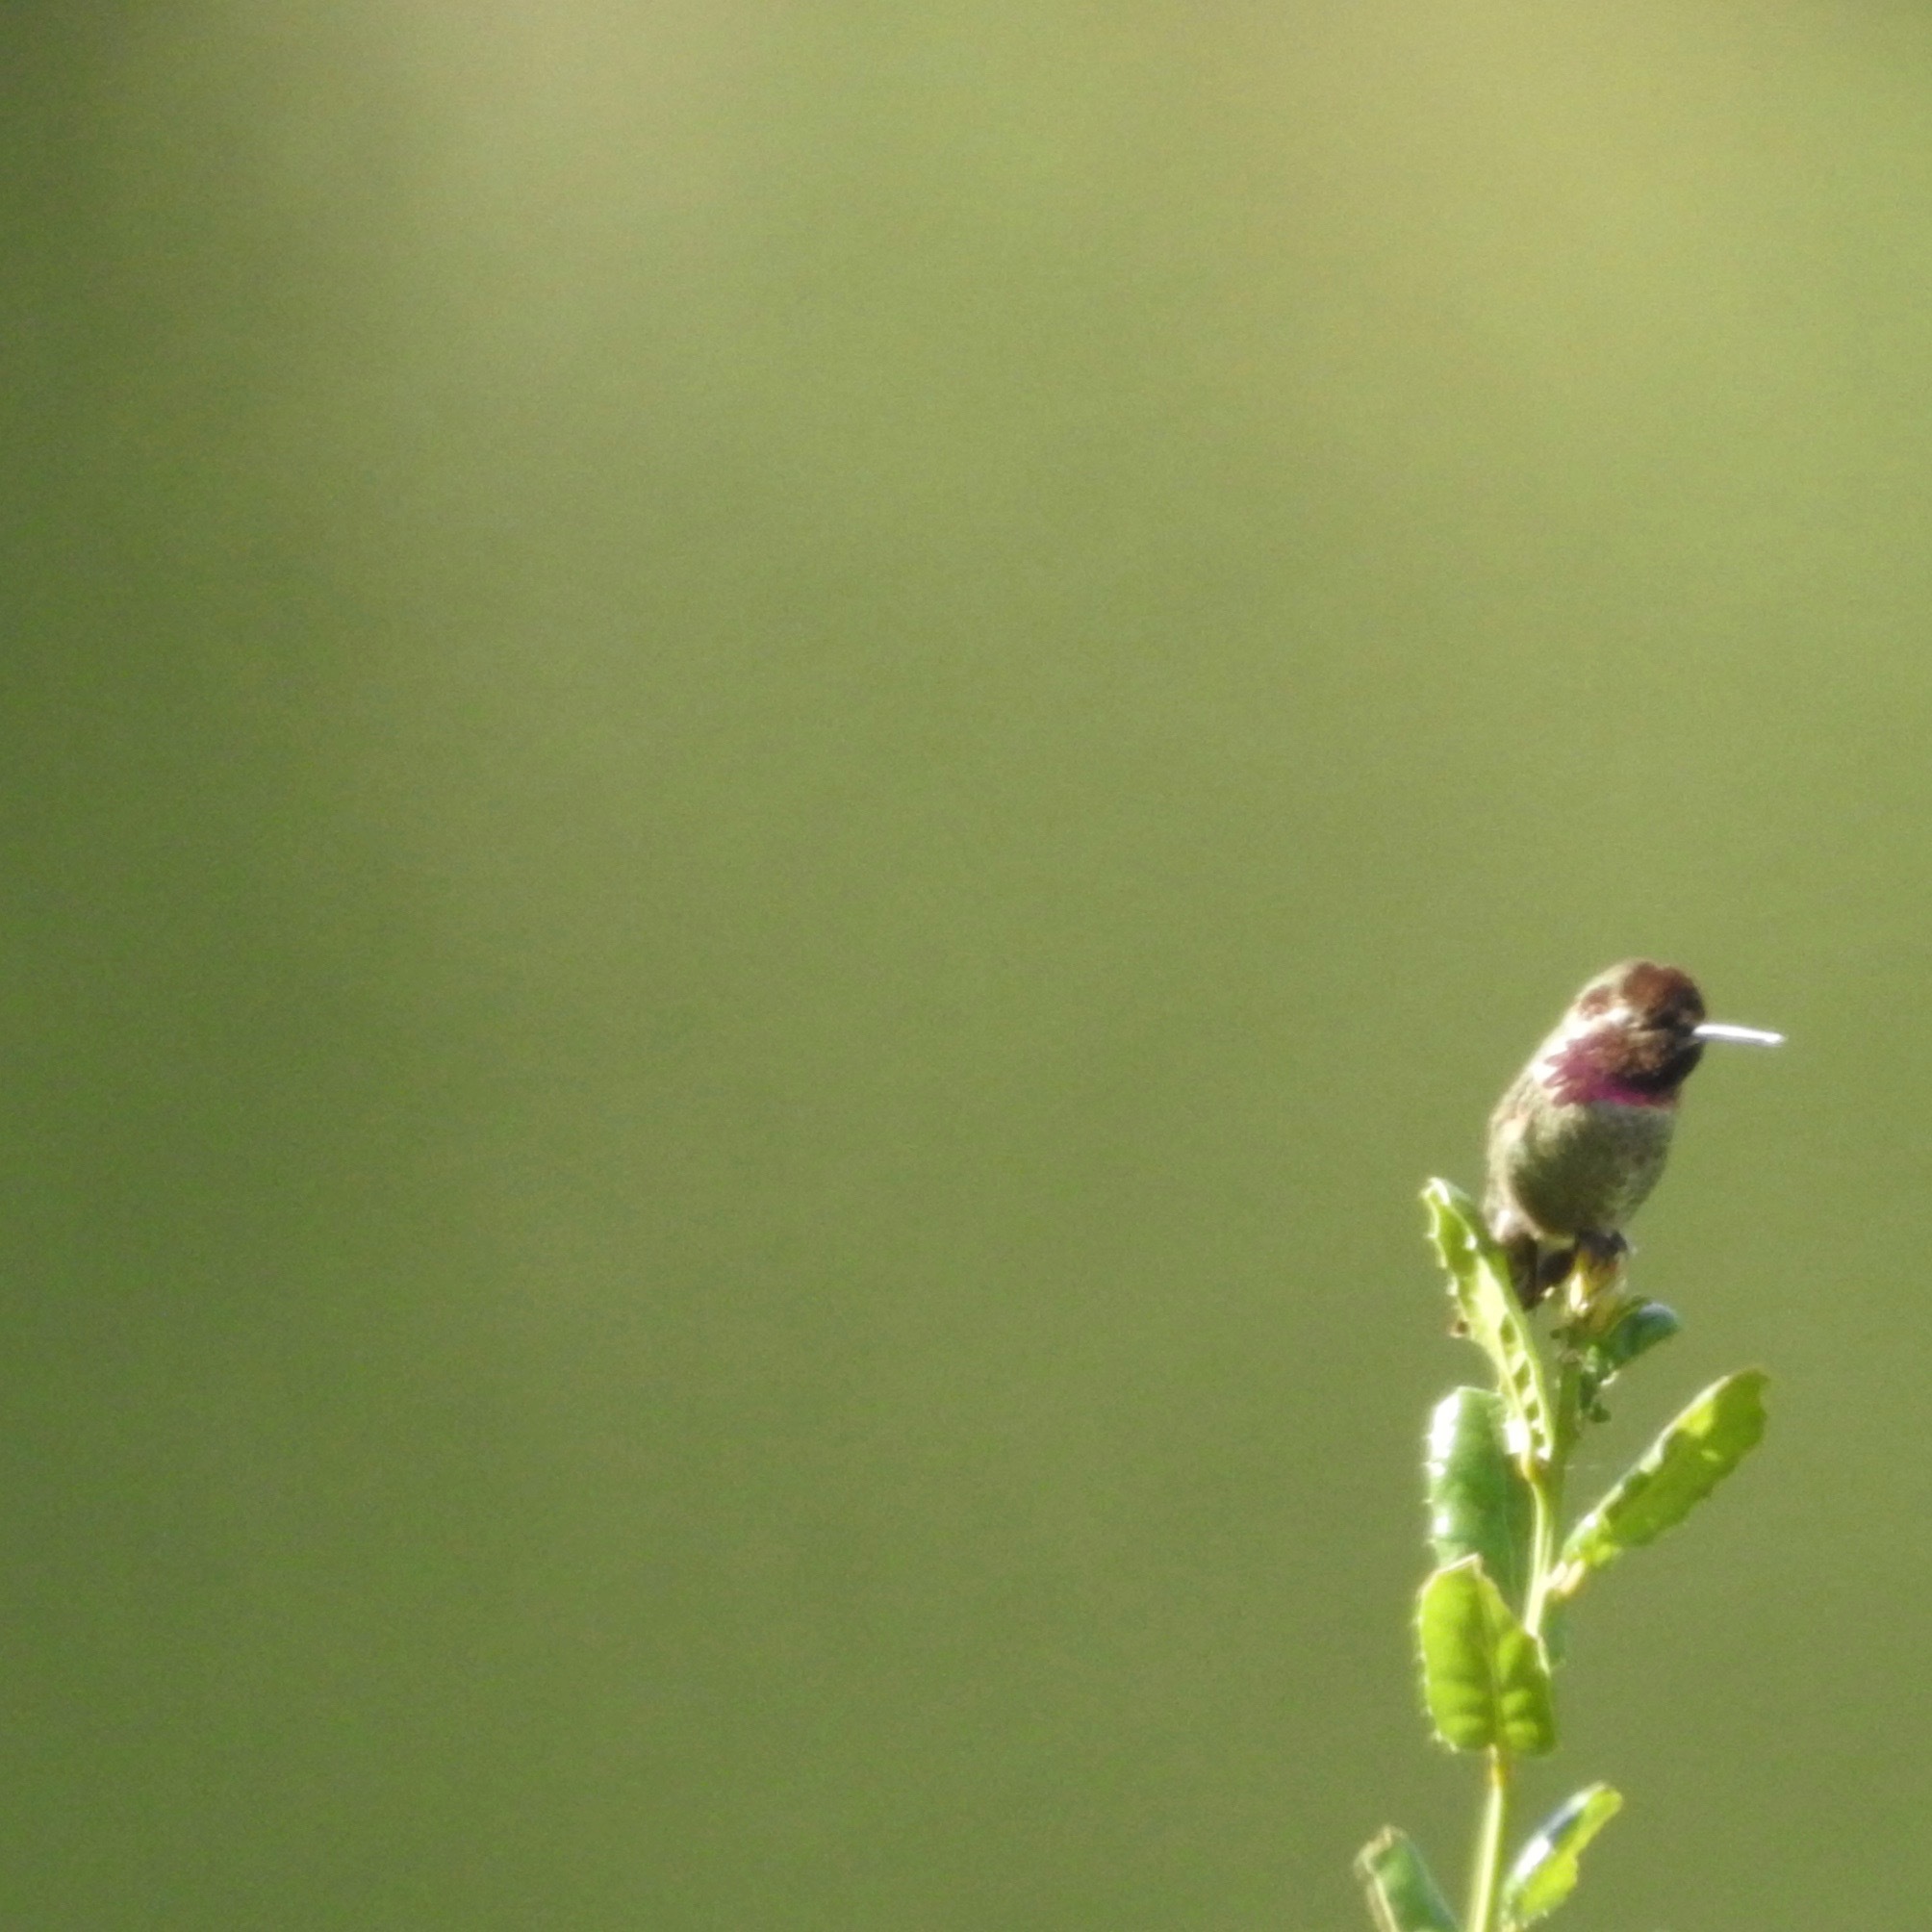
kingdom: Animalia
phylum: Chordata
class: Aves
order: Apodiformes
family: Trochilidae
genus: Calypte
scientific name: Calypte anna
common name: Anna's hummingbird
